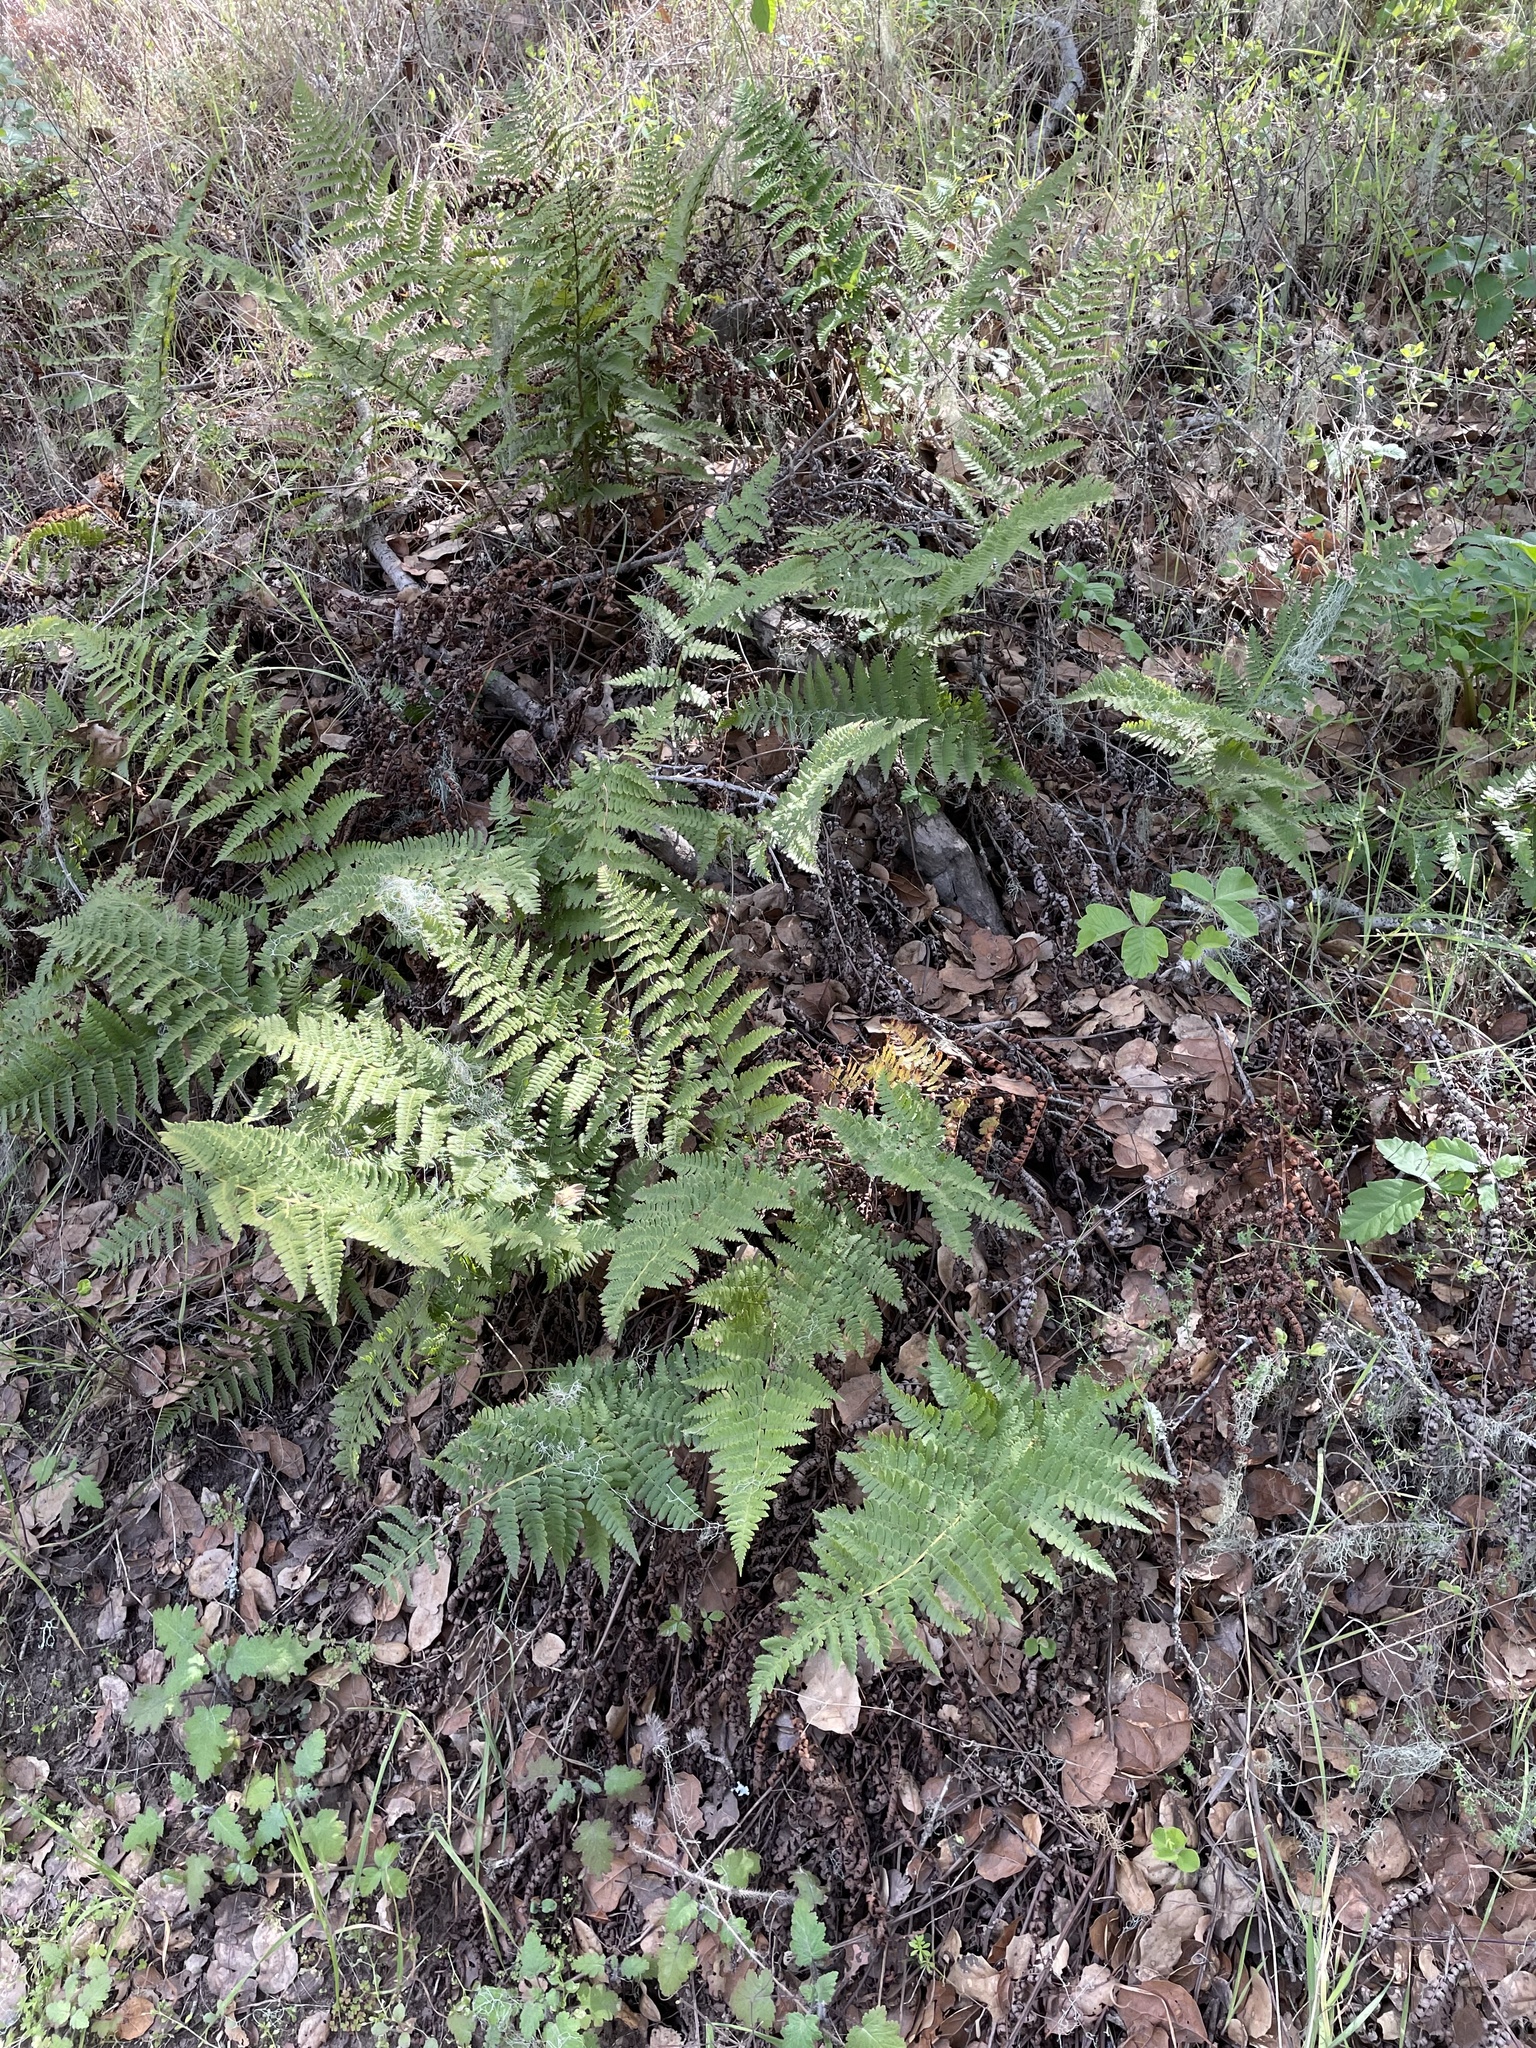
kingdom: Plantae
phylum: Tracheophyta
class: Polypodiopsida
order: Polypodiales
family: Dryopteridaceae
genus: Dryopteris
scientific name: Dryopteris arguta
